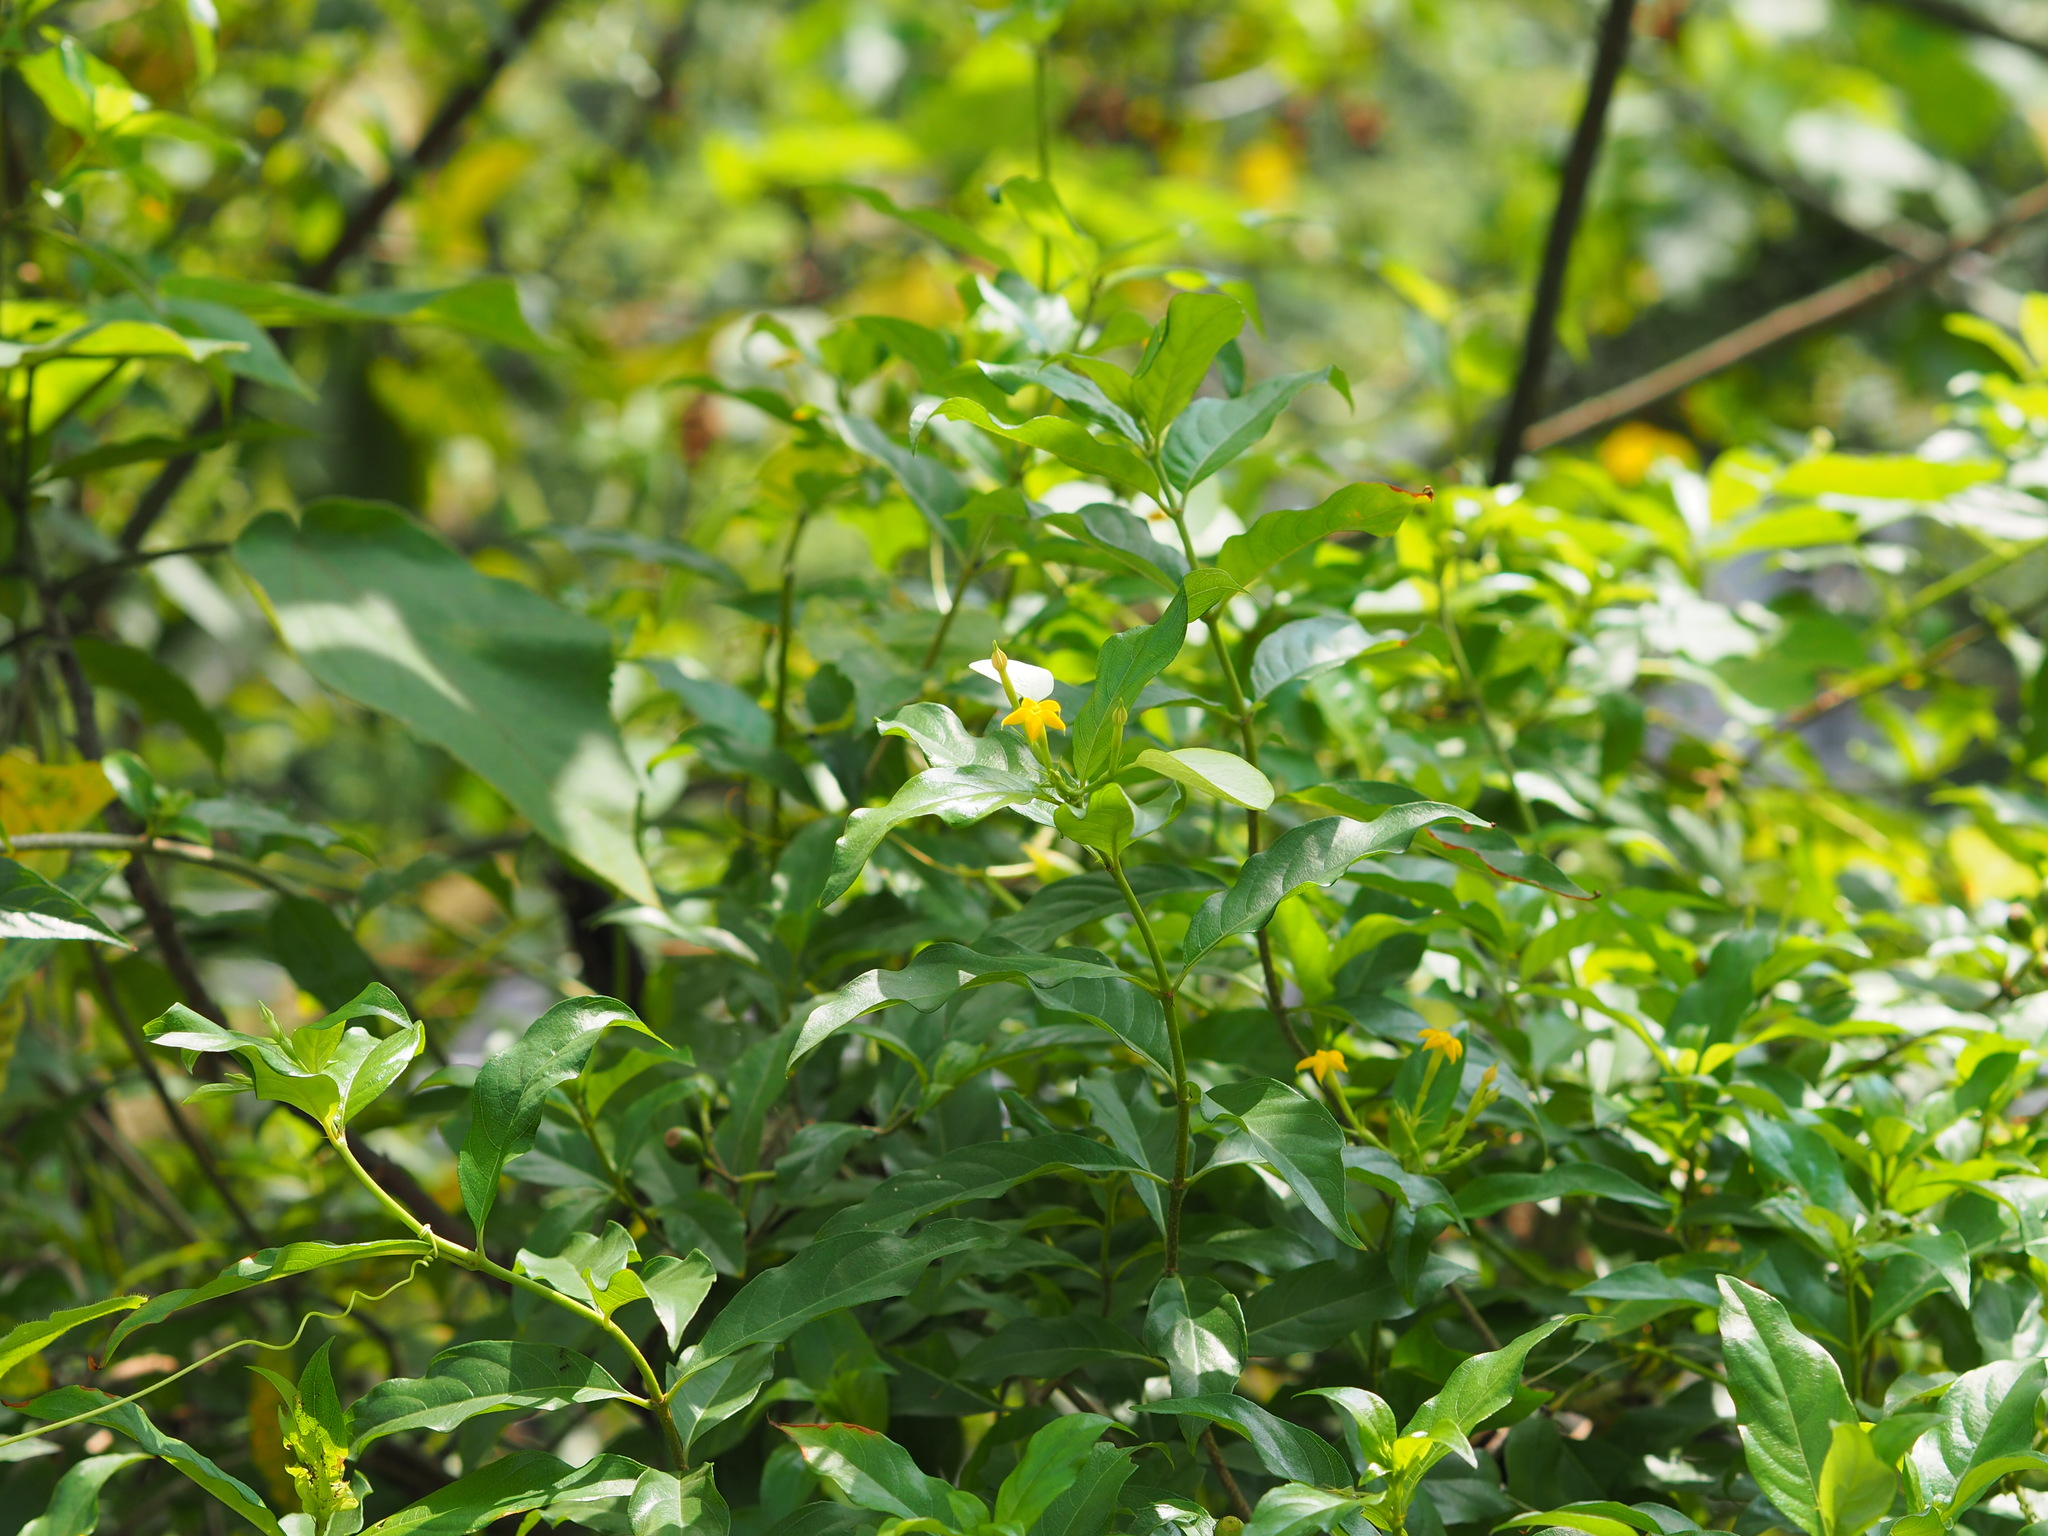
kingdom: Plantae
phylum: Tracheophyta
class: Magnoliopsida
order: Gentianales
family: Rubiaceae
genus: Mussaenda
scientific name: Mussaenda formosana
